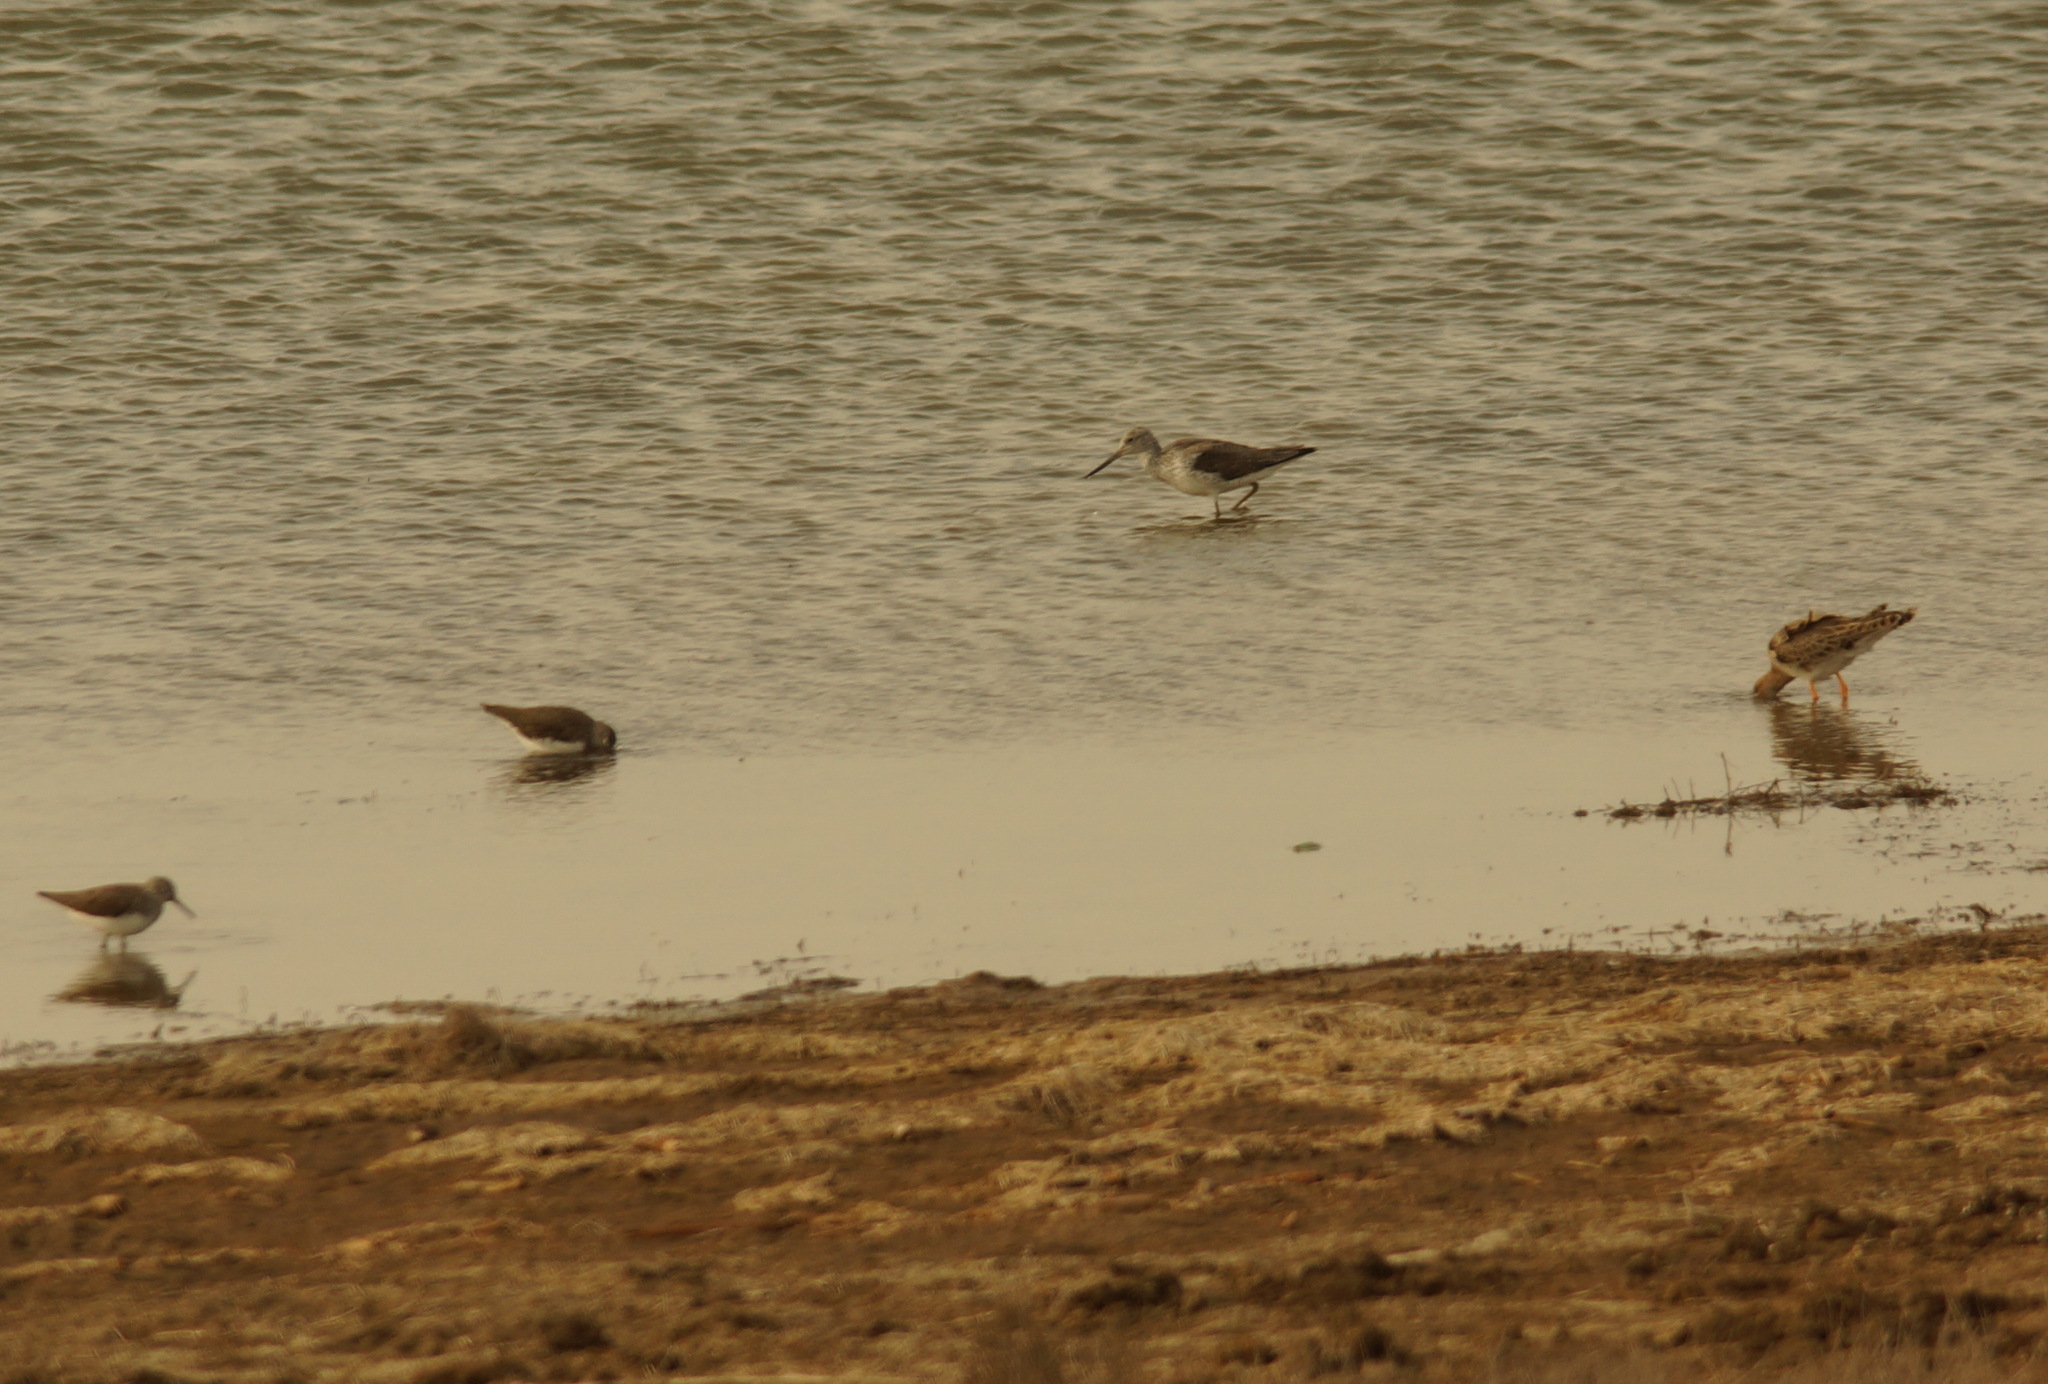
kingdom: Animalia
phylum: Chordata
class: Aves
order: Charadriiformes
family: Scolopacidae
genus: Tringa
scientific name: Tringa ochropus
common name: Green sandpiper
